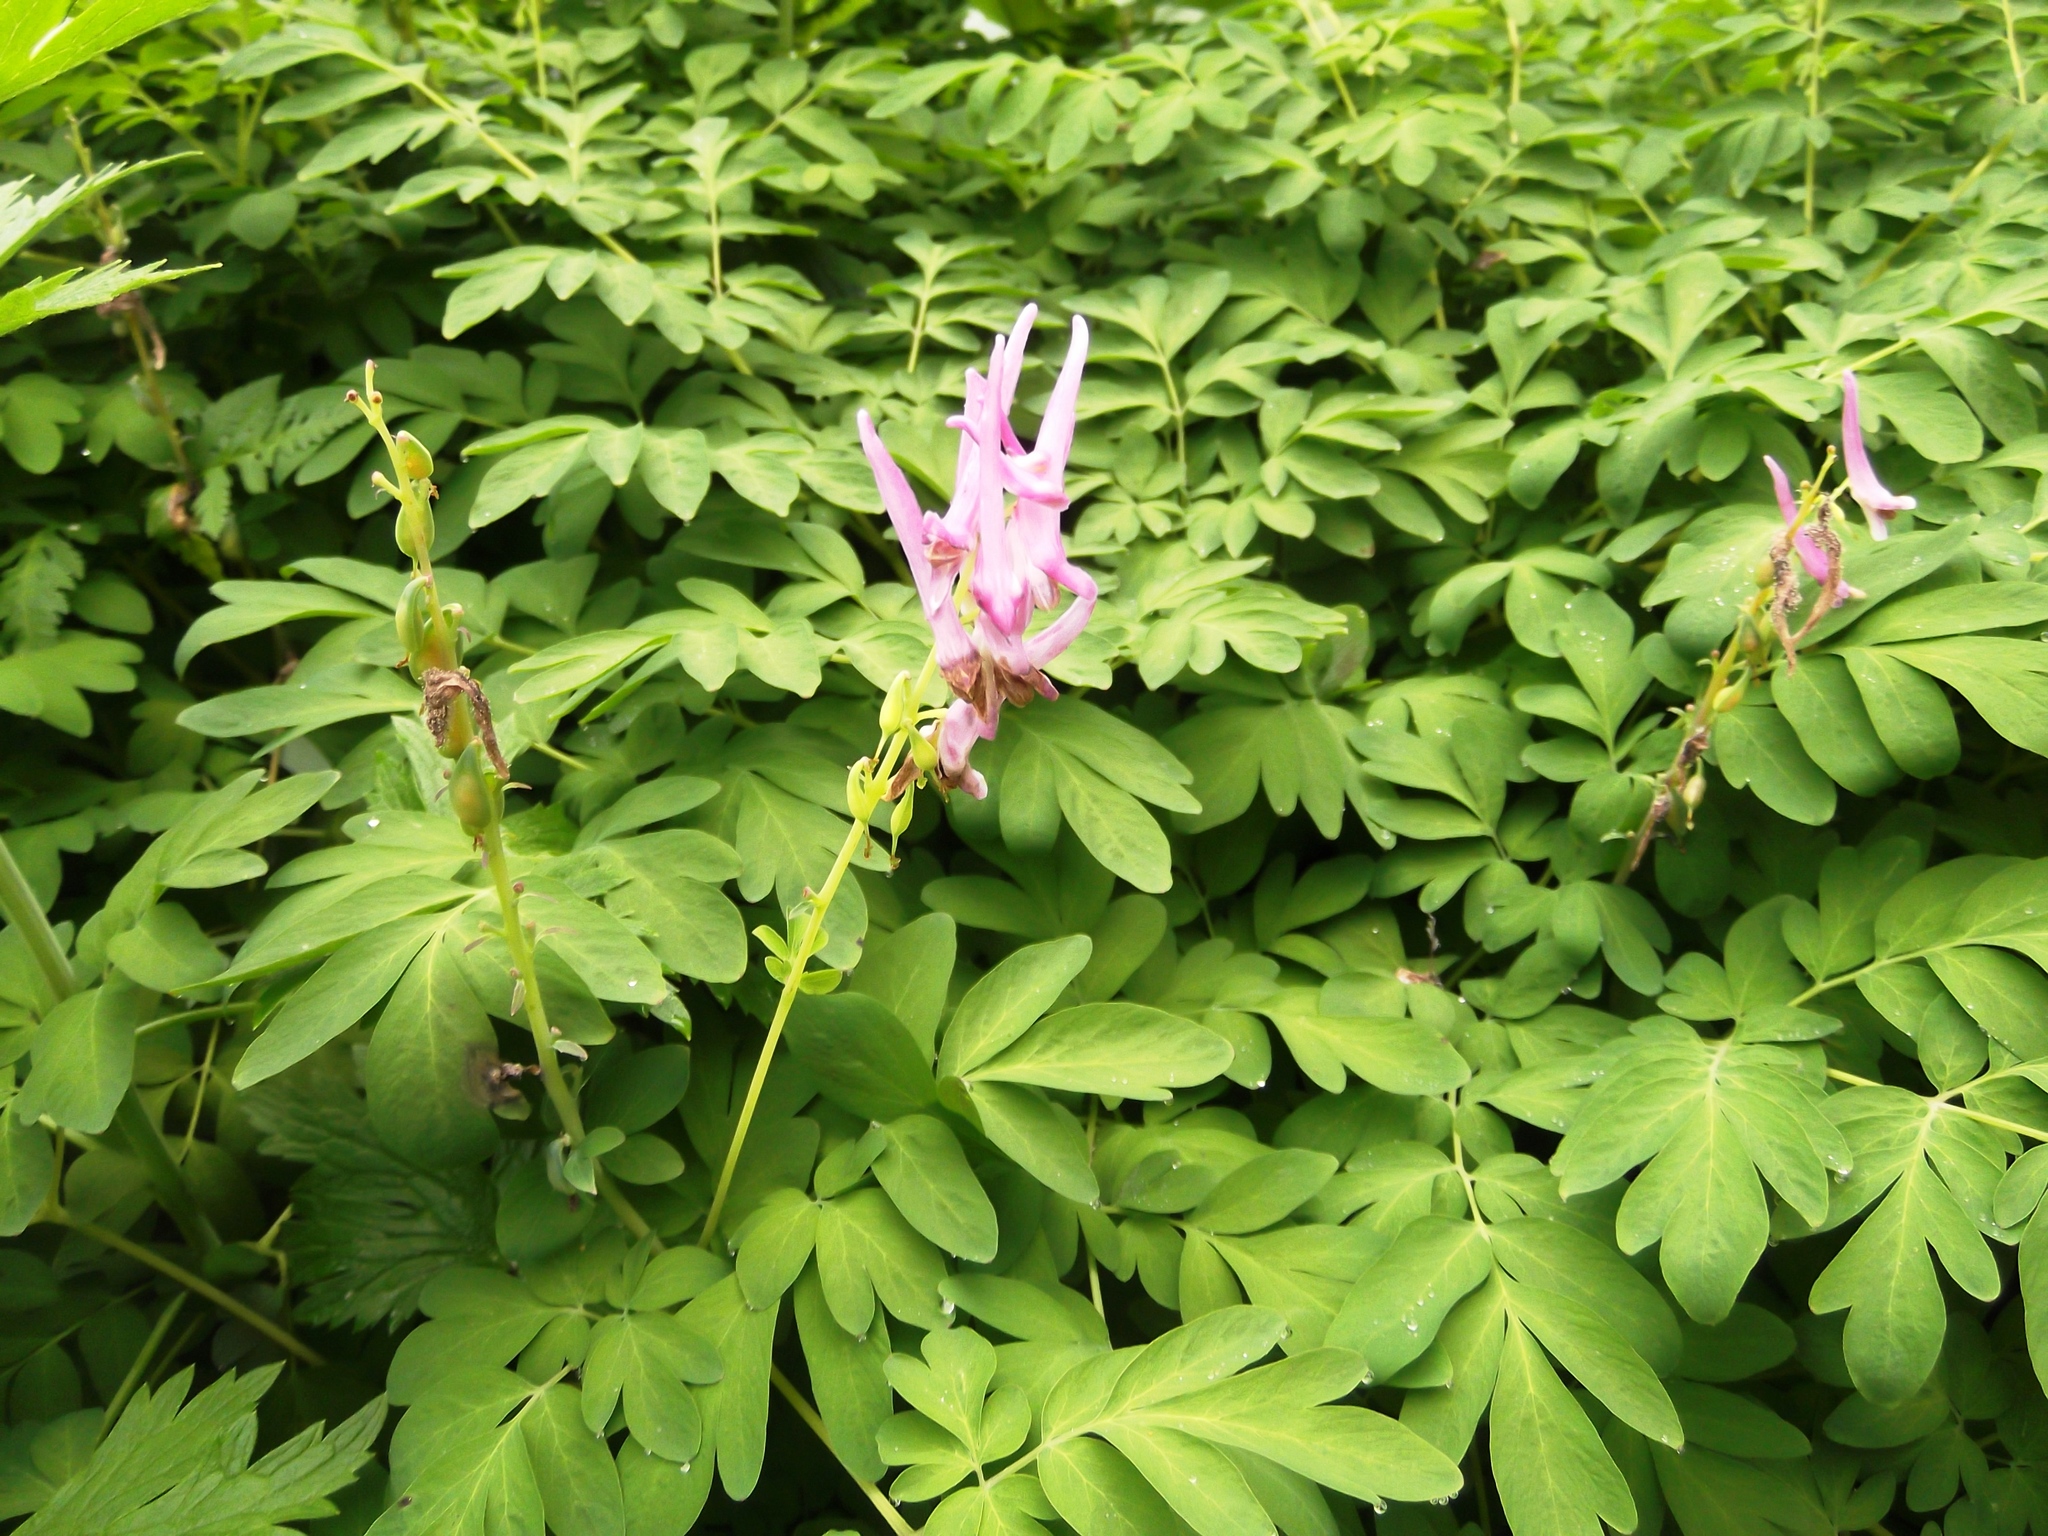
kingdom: Plantae
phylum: Tracheophyta
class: Magnoliopsida
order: Ranunculales
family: Papaveraceae
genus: Corydalis
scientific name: Corydalis scouleri
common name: Scouler's corydalis
